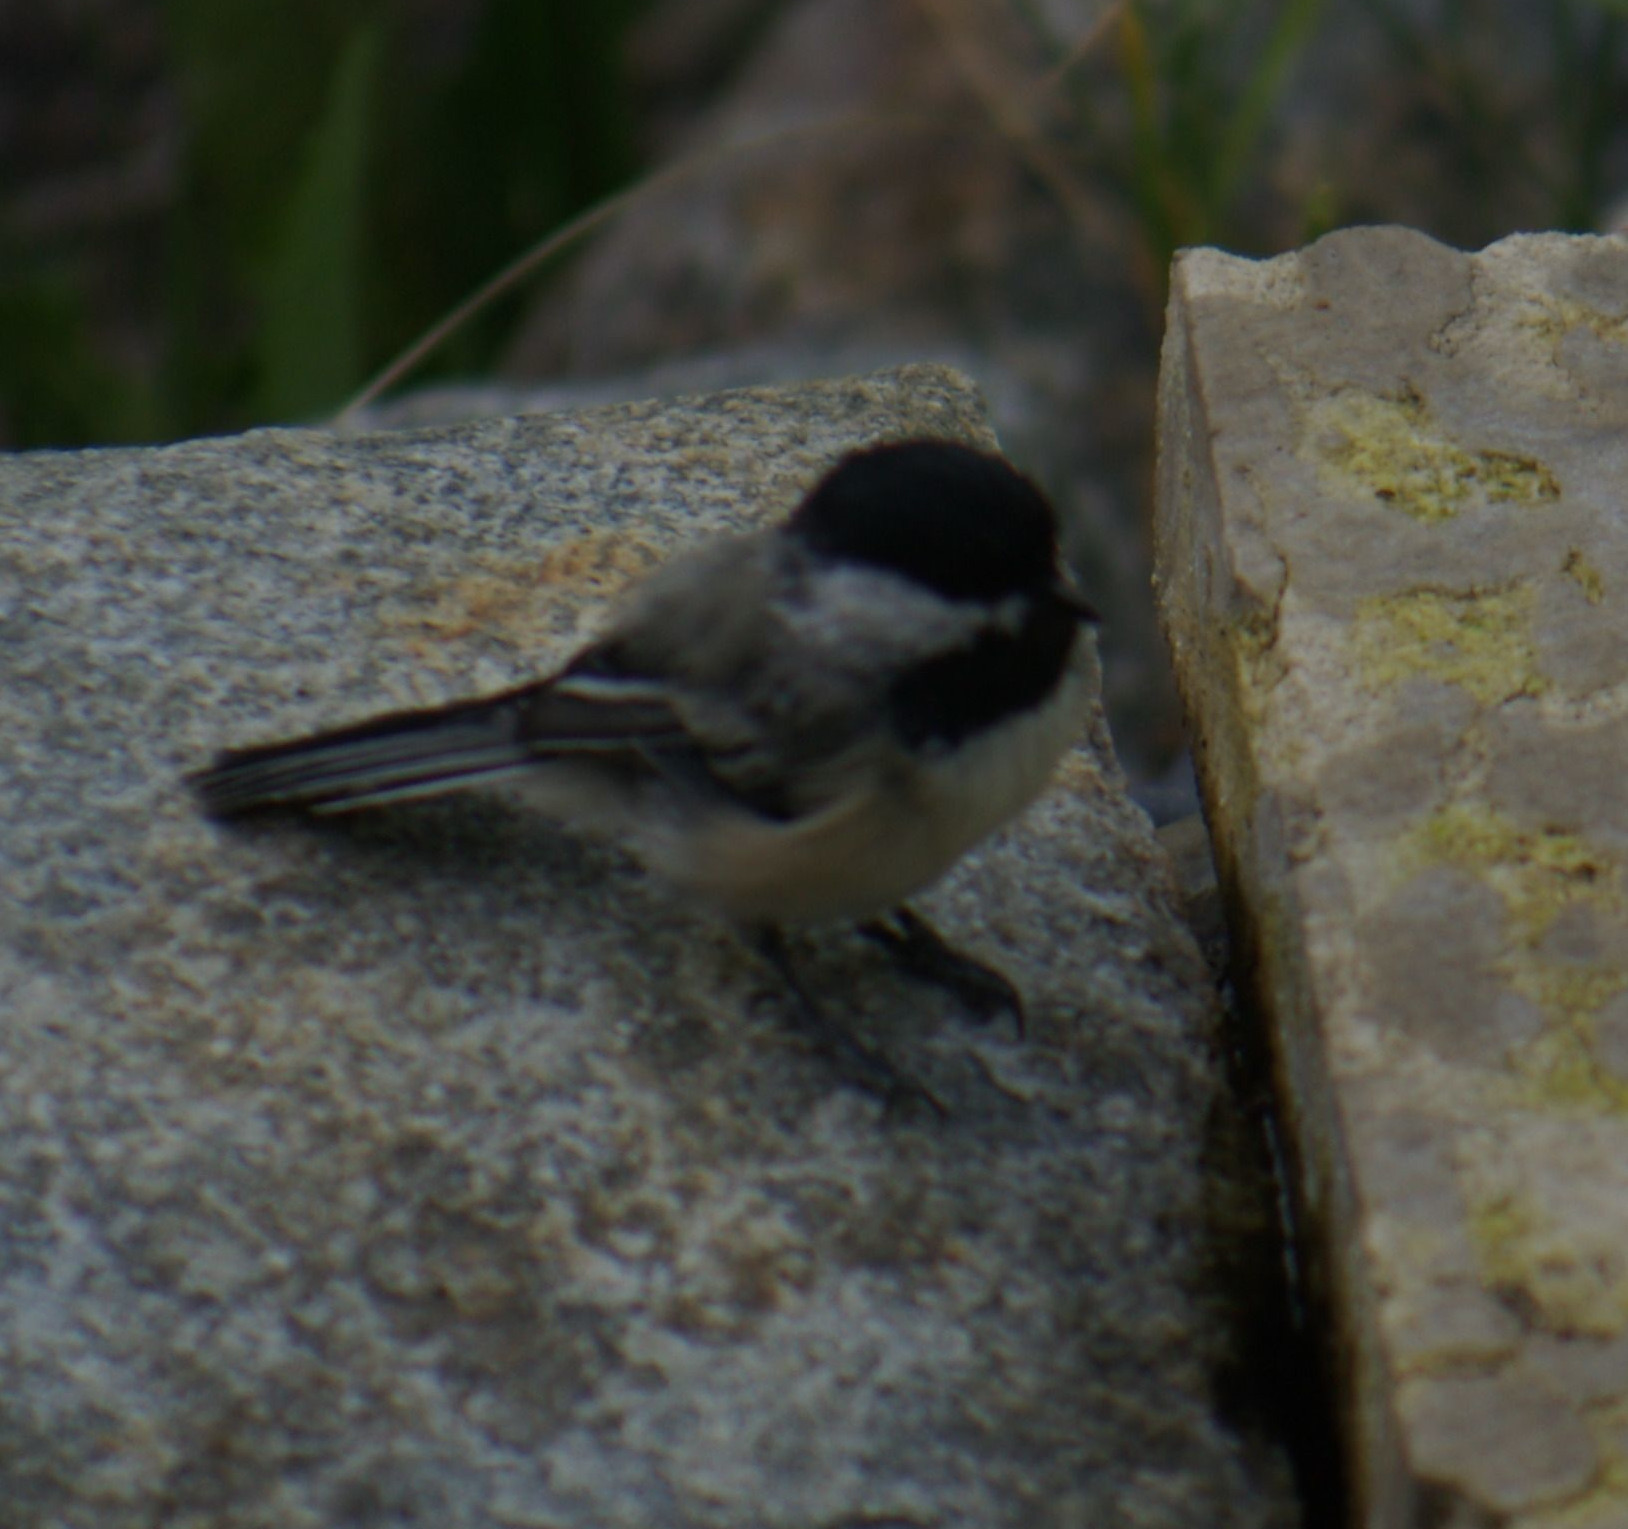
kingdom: Animalia
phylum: Chordata
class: Aves
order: Passeriformes
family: Paridae
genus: Poecile
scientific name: Poecile atricapillus
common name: Black-capped chickadee
